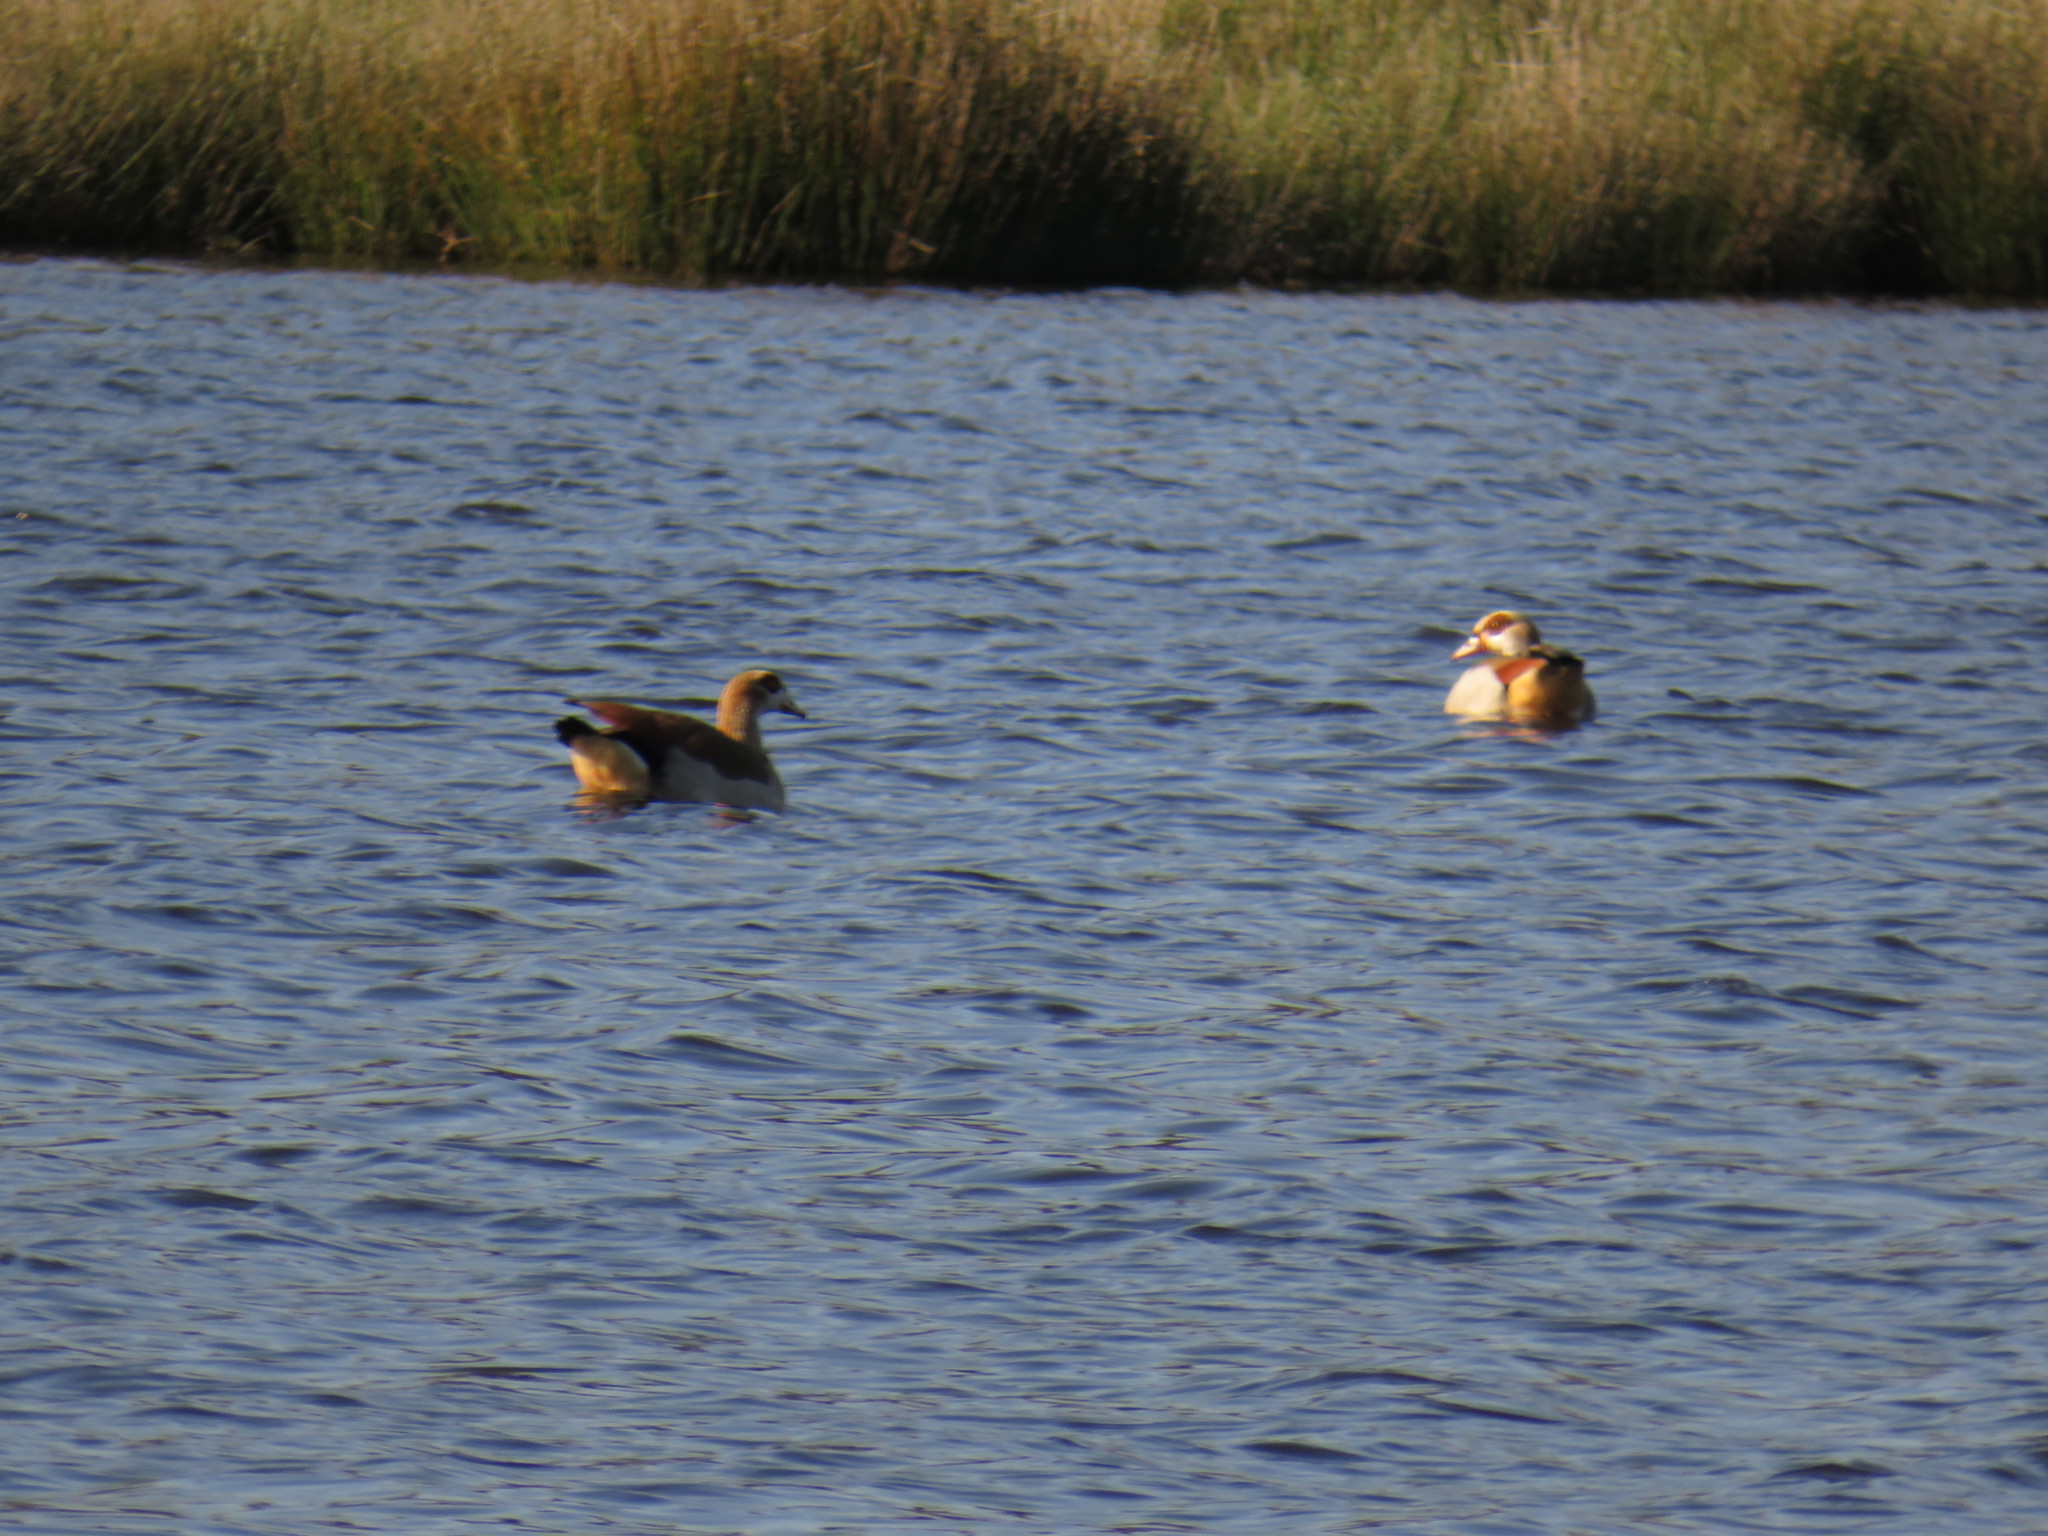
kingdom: Animalia
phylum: Chordata
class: Aves
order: Anseriformes
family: Anatidae
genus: Alopochen
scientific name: Alopochen aegyptiaca
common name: Egyptian goose
